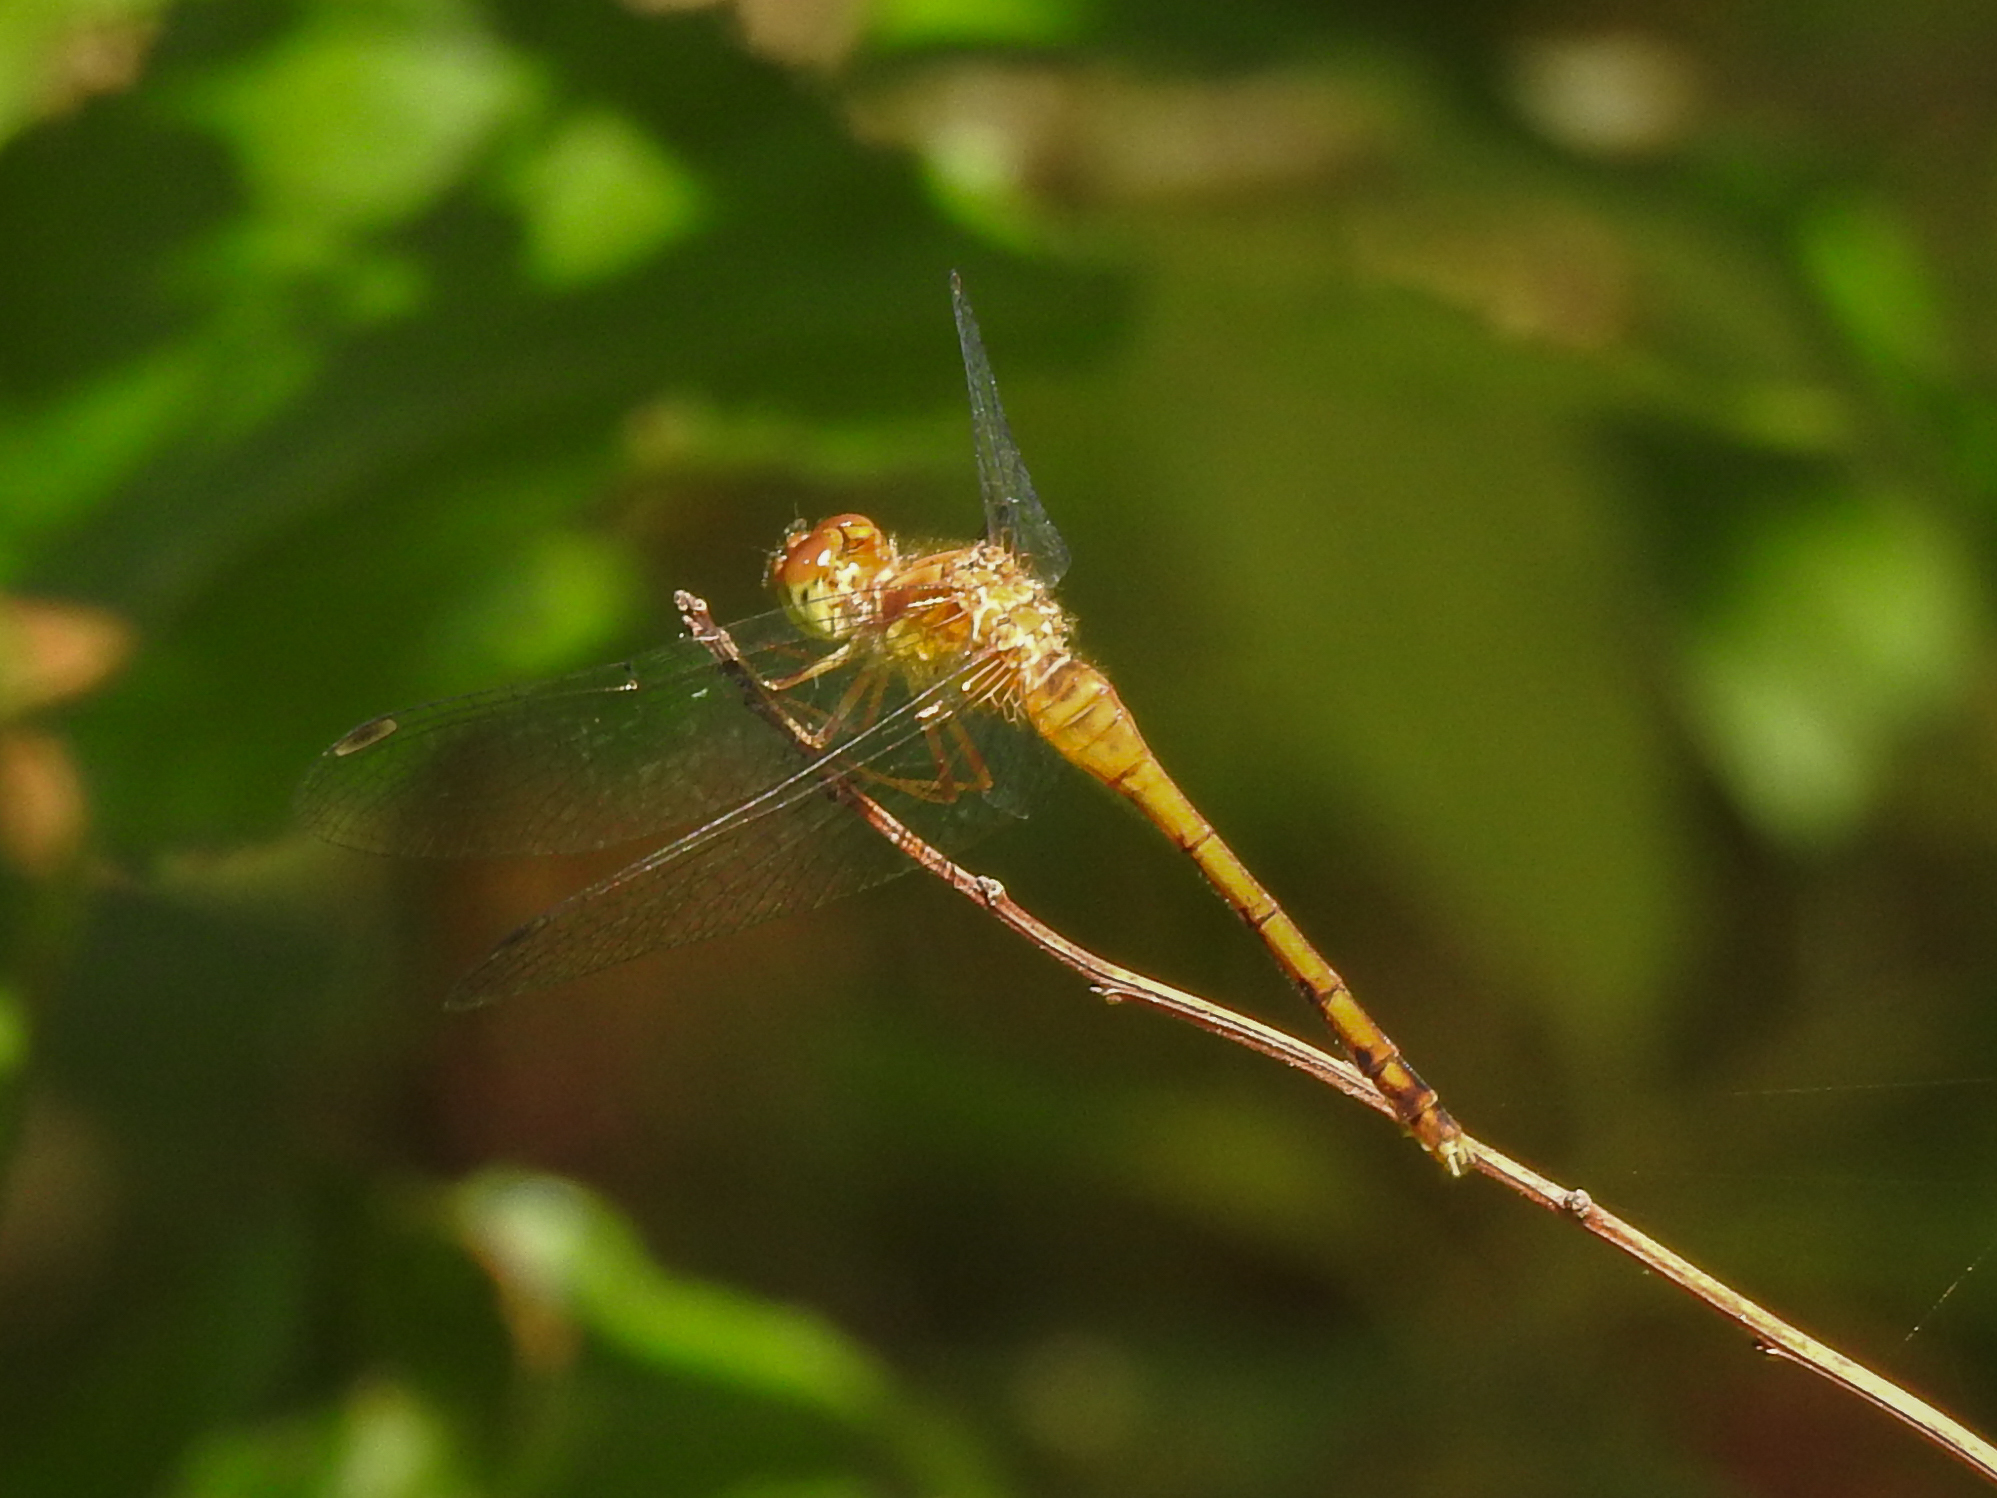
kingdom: Animalia
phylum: Arthropoda
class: Insecta
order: Odonata
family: Libellulidae
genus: Sympetrum
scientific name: Sympetrum vicinum
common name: Autumn meadowhawk
